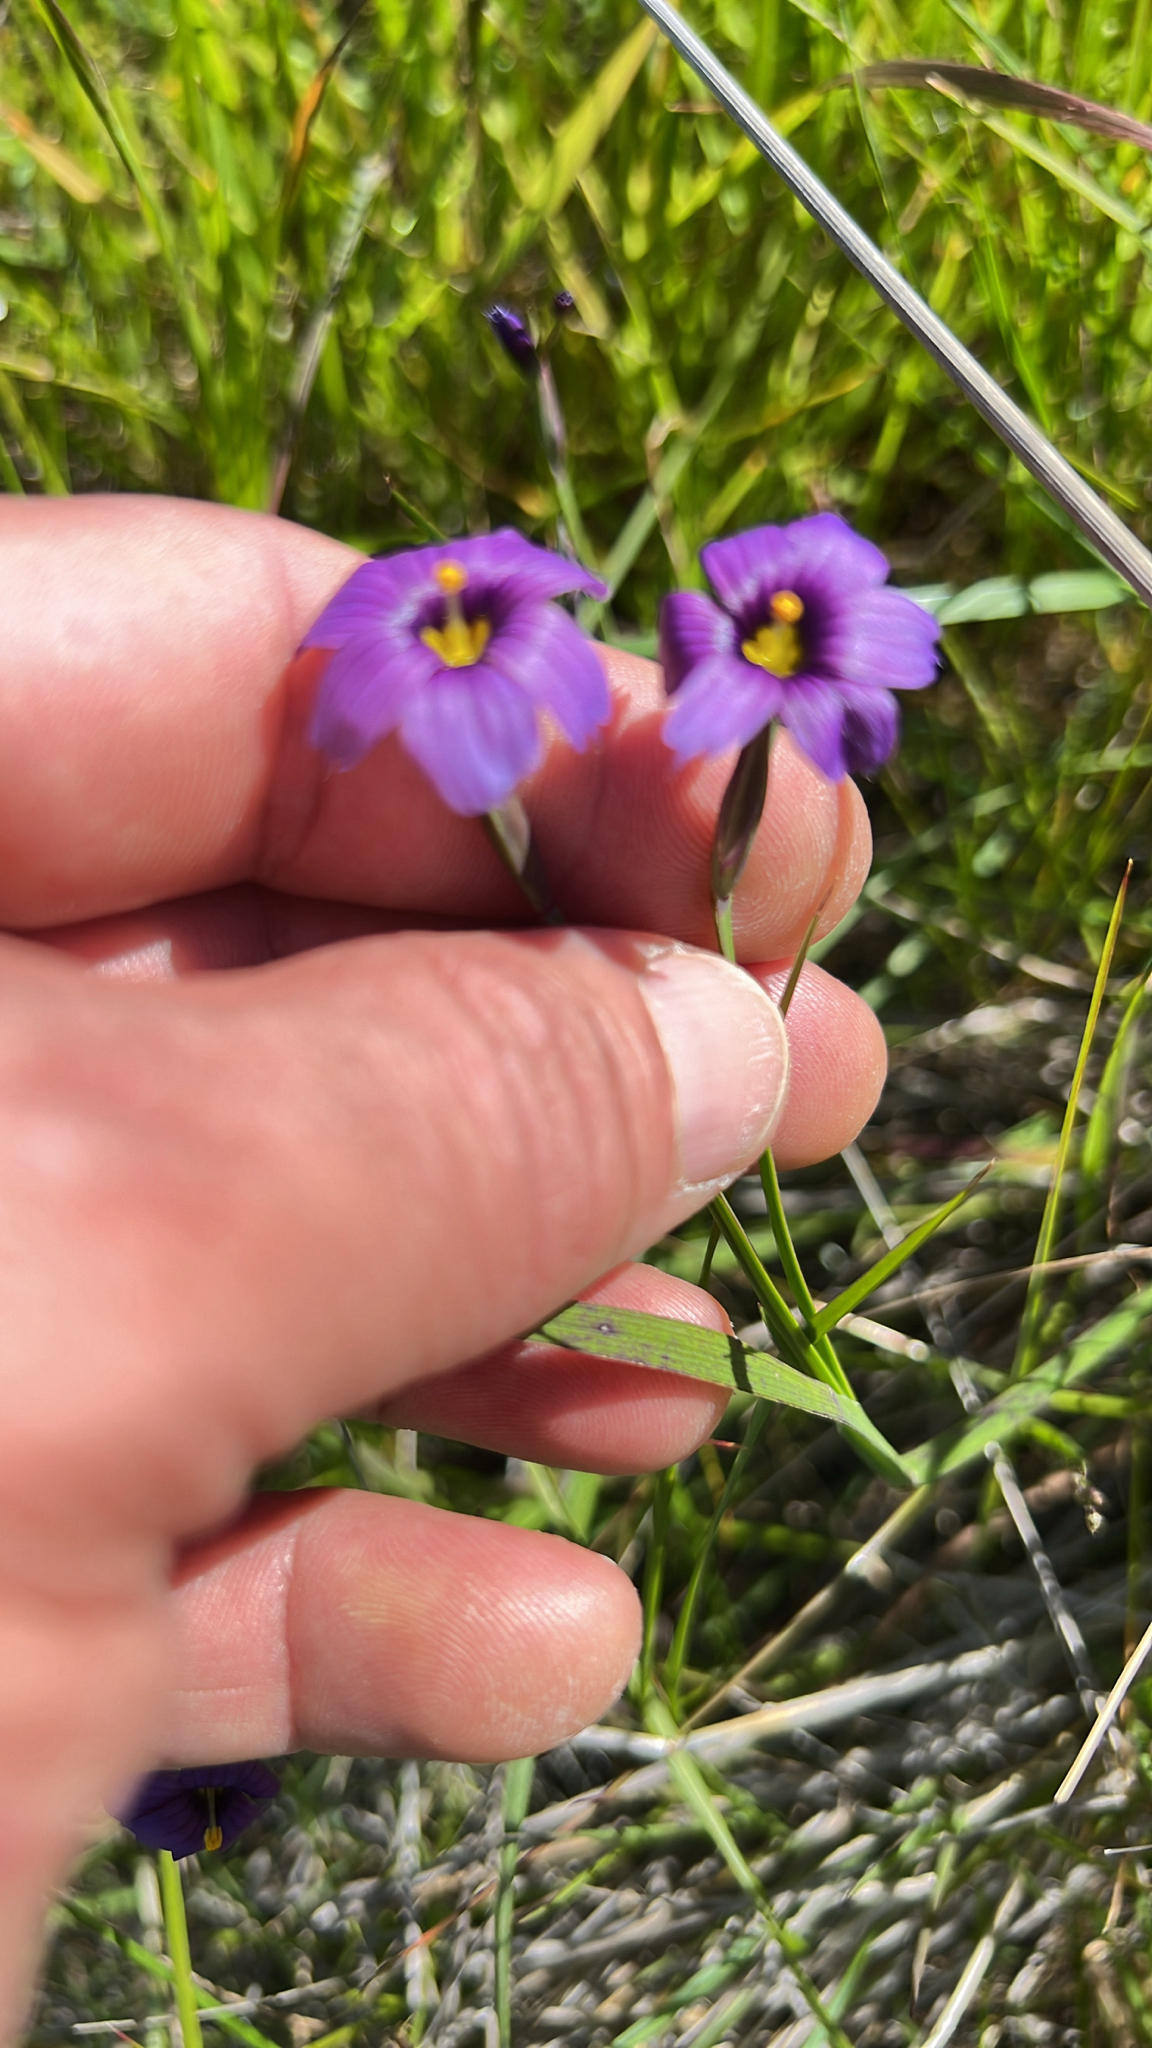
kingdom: Plantae
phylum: Tracheophyta
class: Liliopsida
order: Asparagales
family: Iridaceae
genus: Sisyrinchium
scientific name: Sisyrinchium bellum
